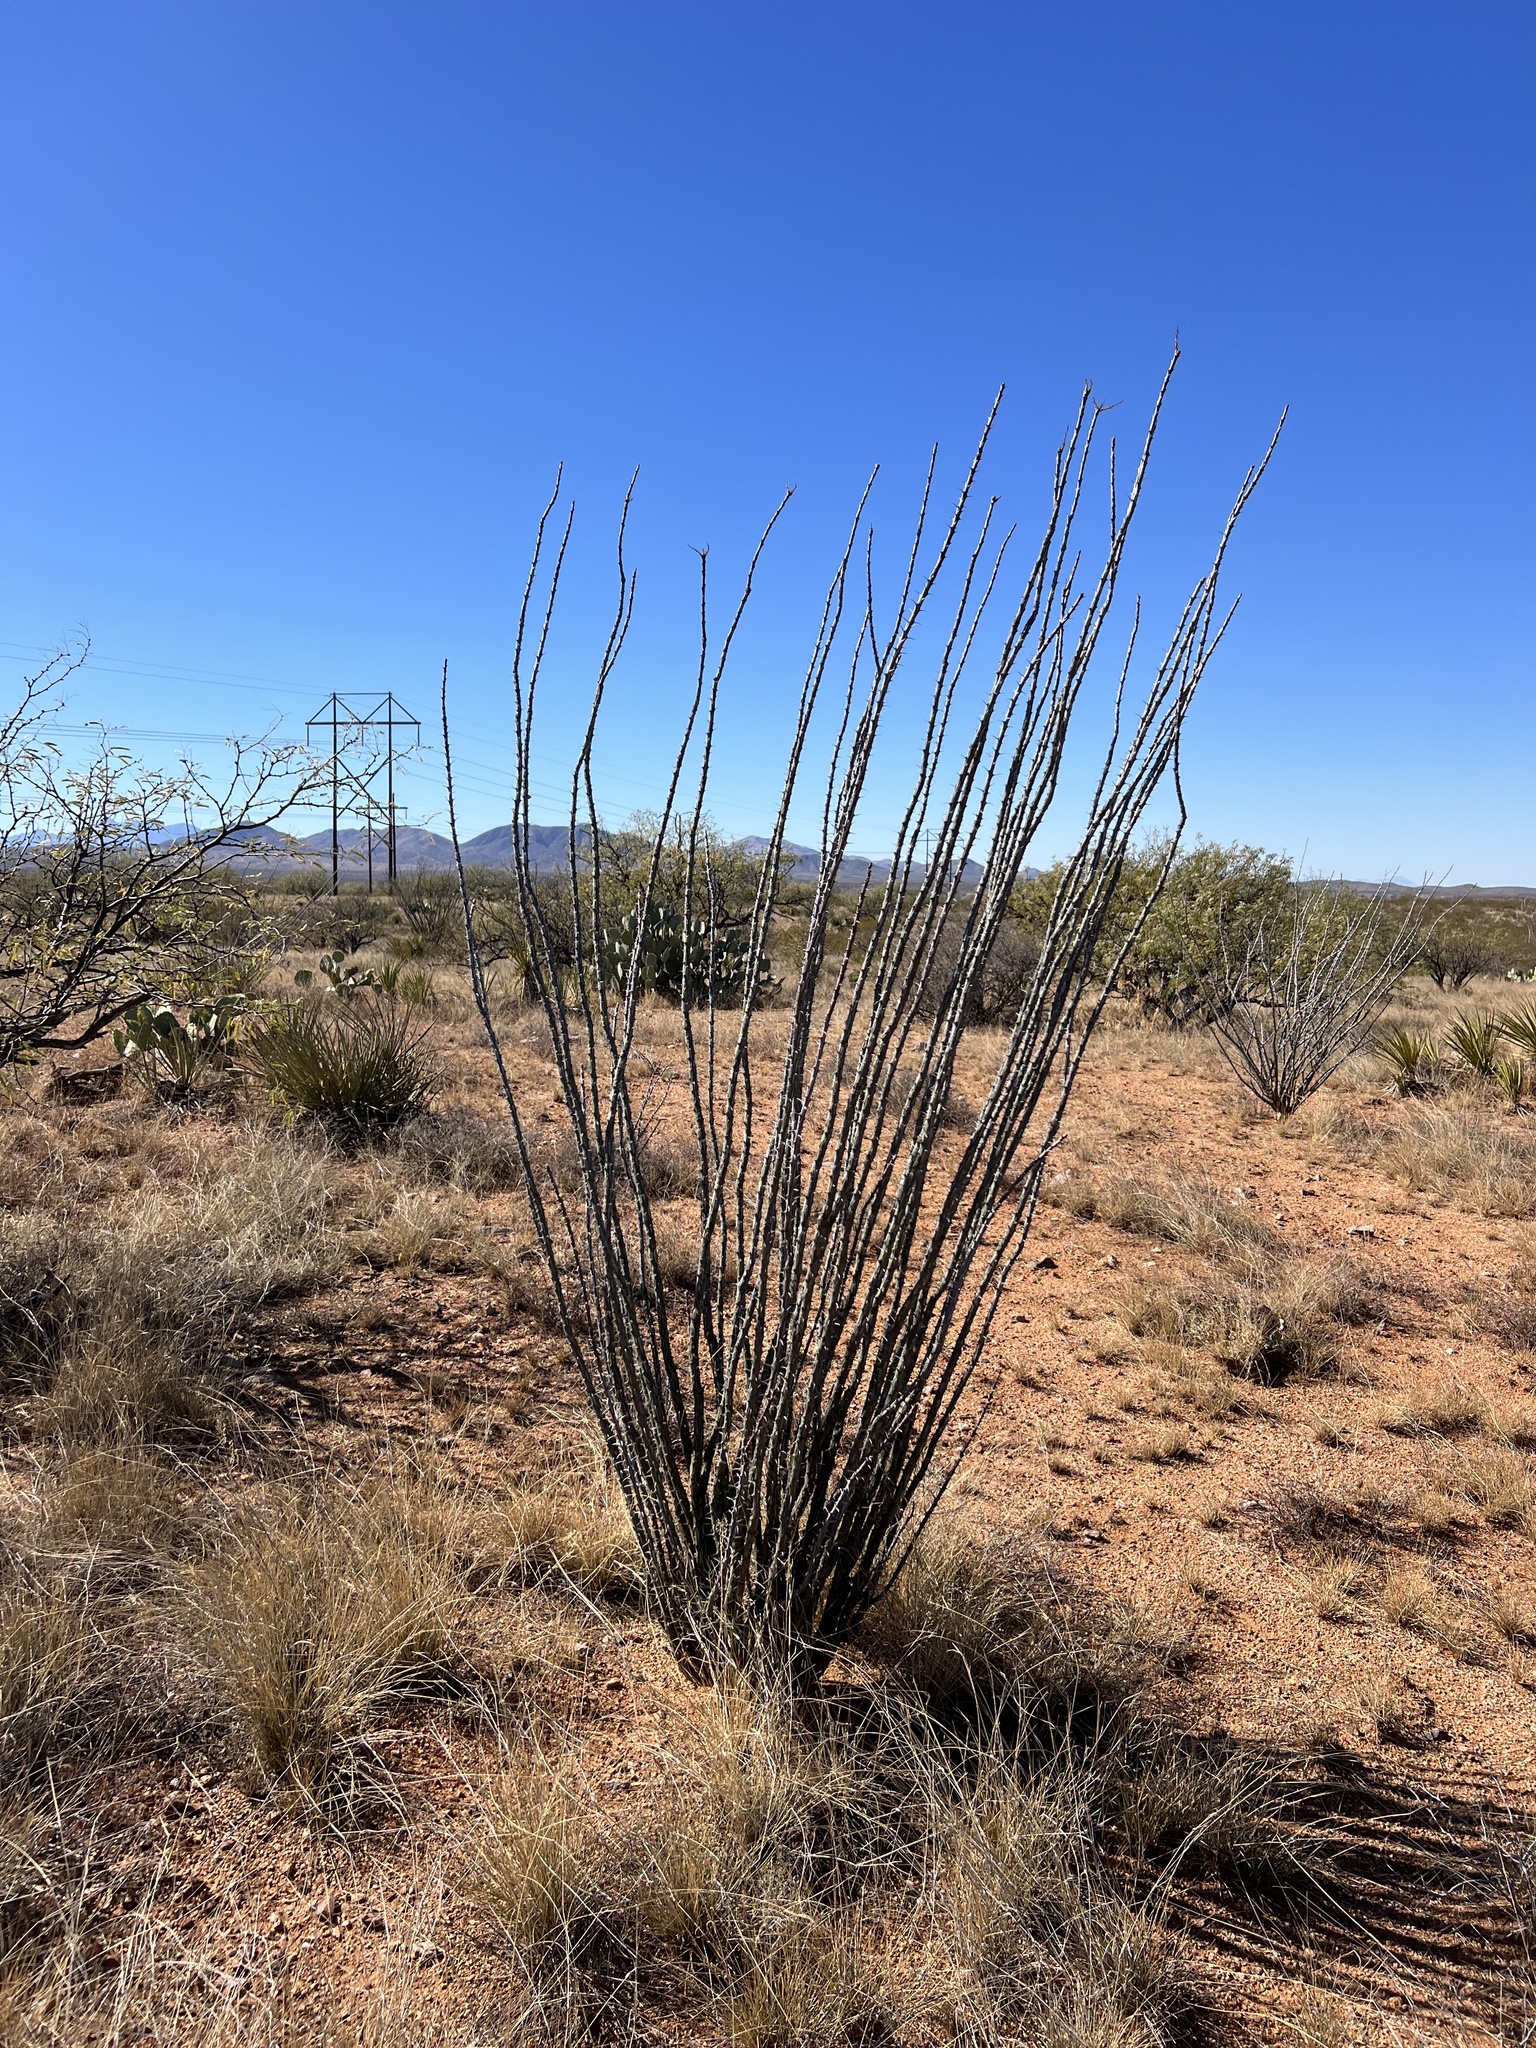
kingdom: Plantae
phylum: Tracheophyta
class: Magnoliopsida
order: Ericales
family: Fouquieriaceae
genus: Fouquieria
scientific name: Fouquieria splendens
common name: Vine-cactus
